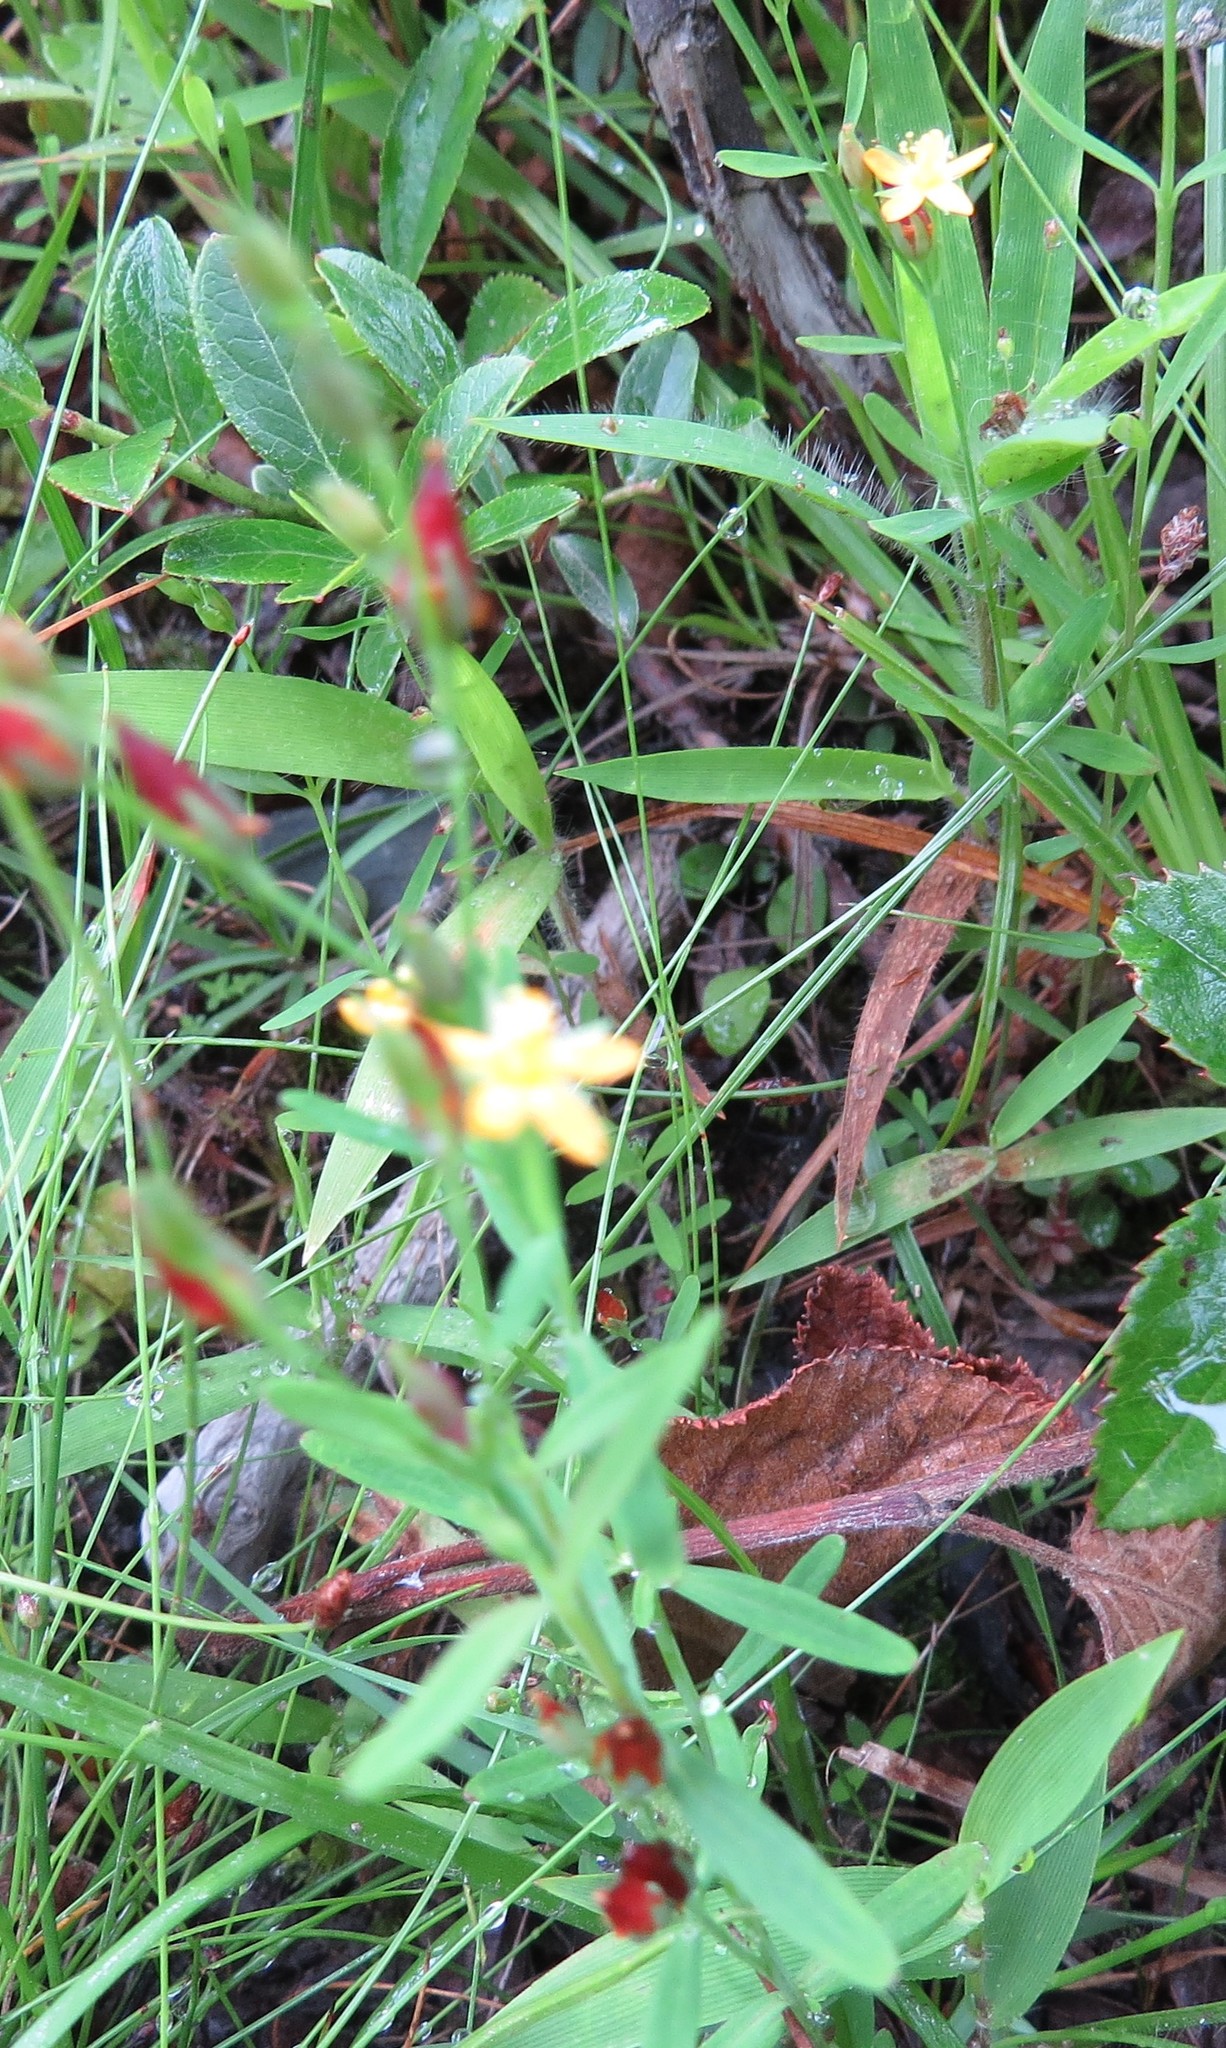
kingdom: Plantae
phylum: Tracheophyta
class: Magnoliopsida
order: Malpighiales
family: Hypericaceae
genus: Hypericum
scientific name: Hypericum canadense
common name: Irish st. john's-wort
